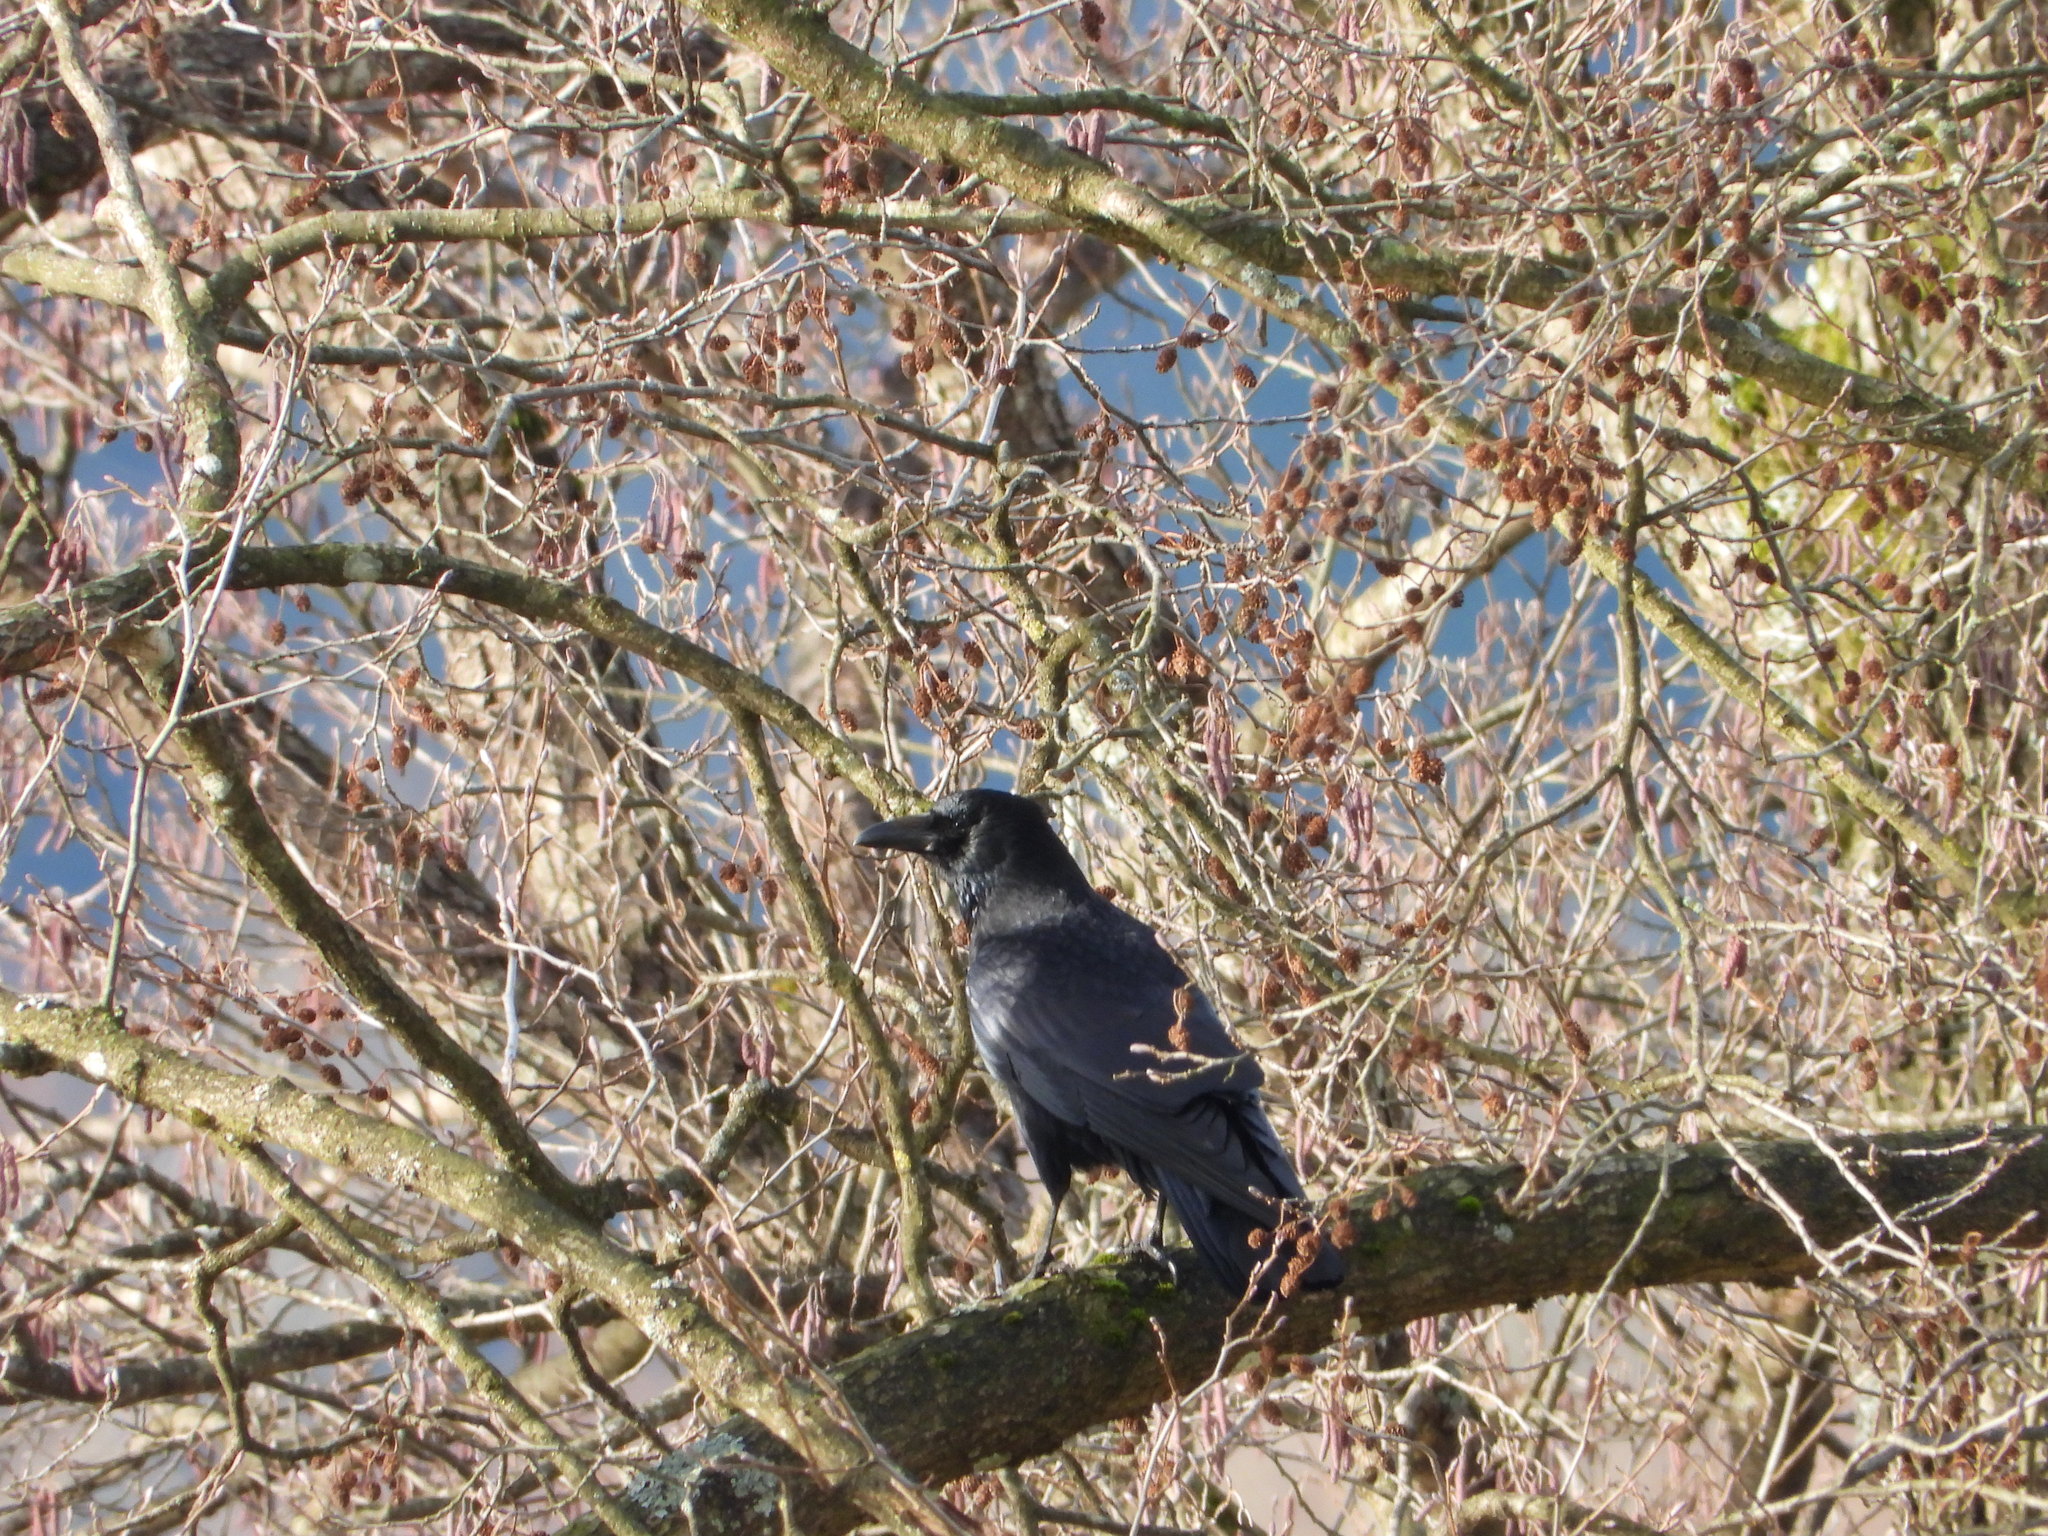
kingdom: Animalia
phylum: Chordata
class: Aves
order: Passeriformes
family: Corvidae
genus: Corvus
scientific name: Corvus corone
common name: Carrion crow
